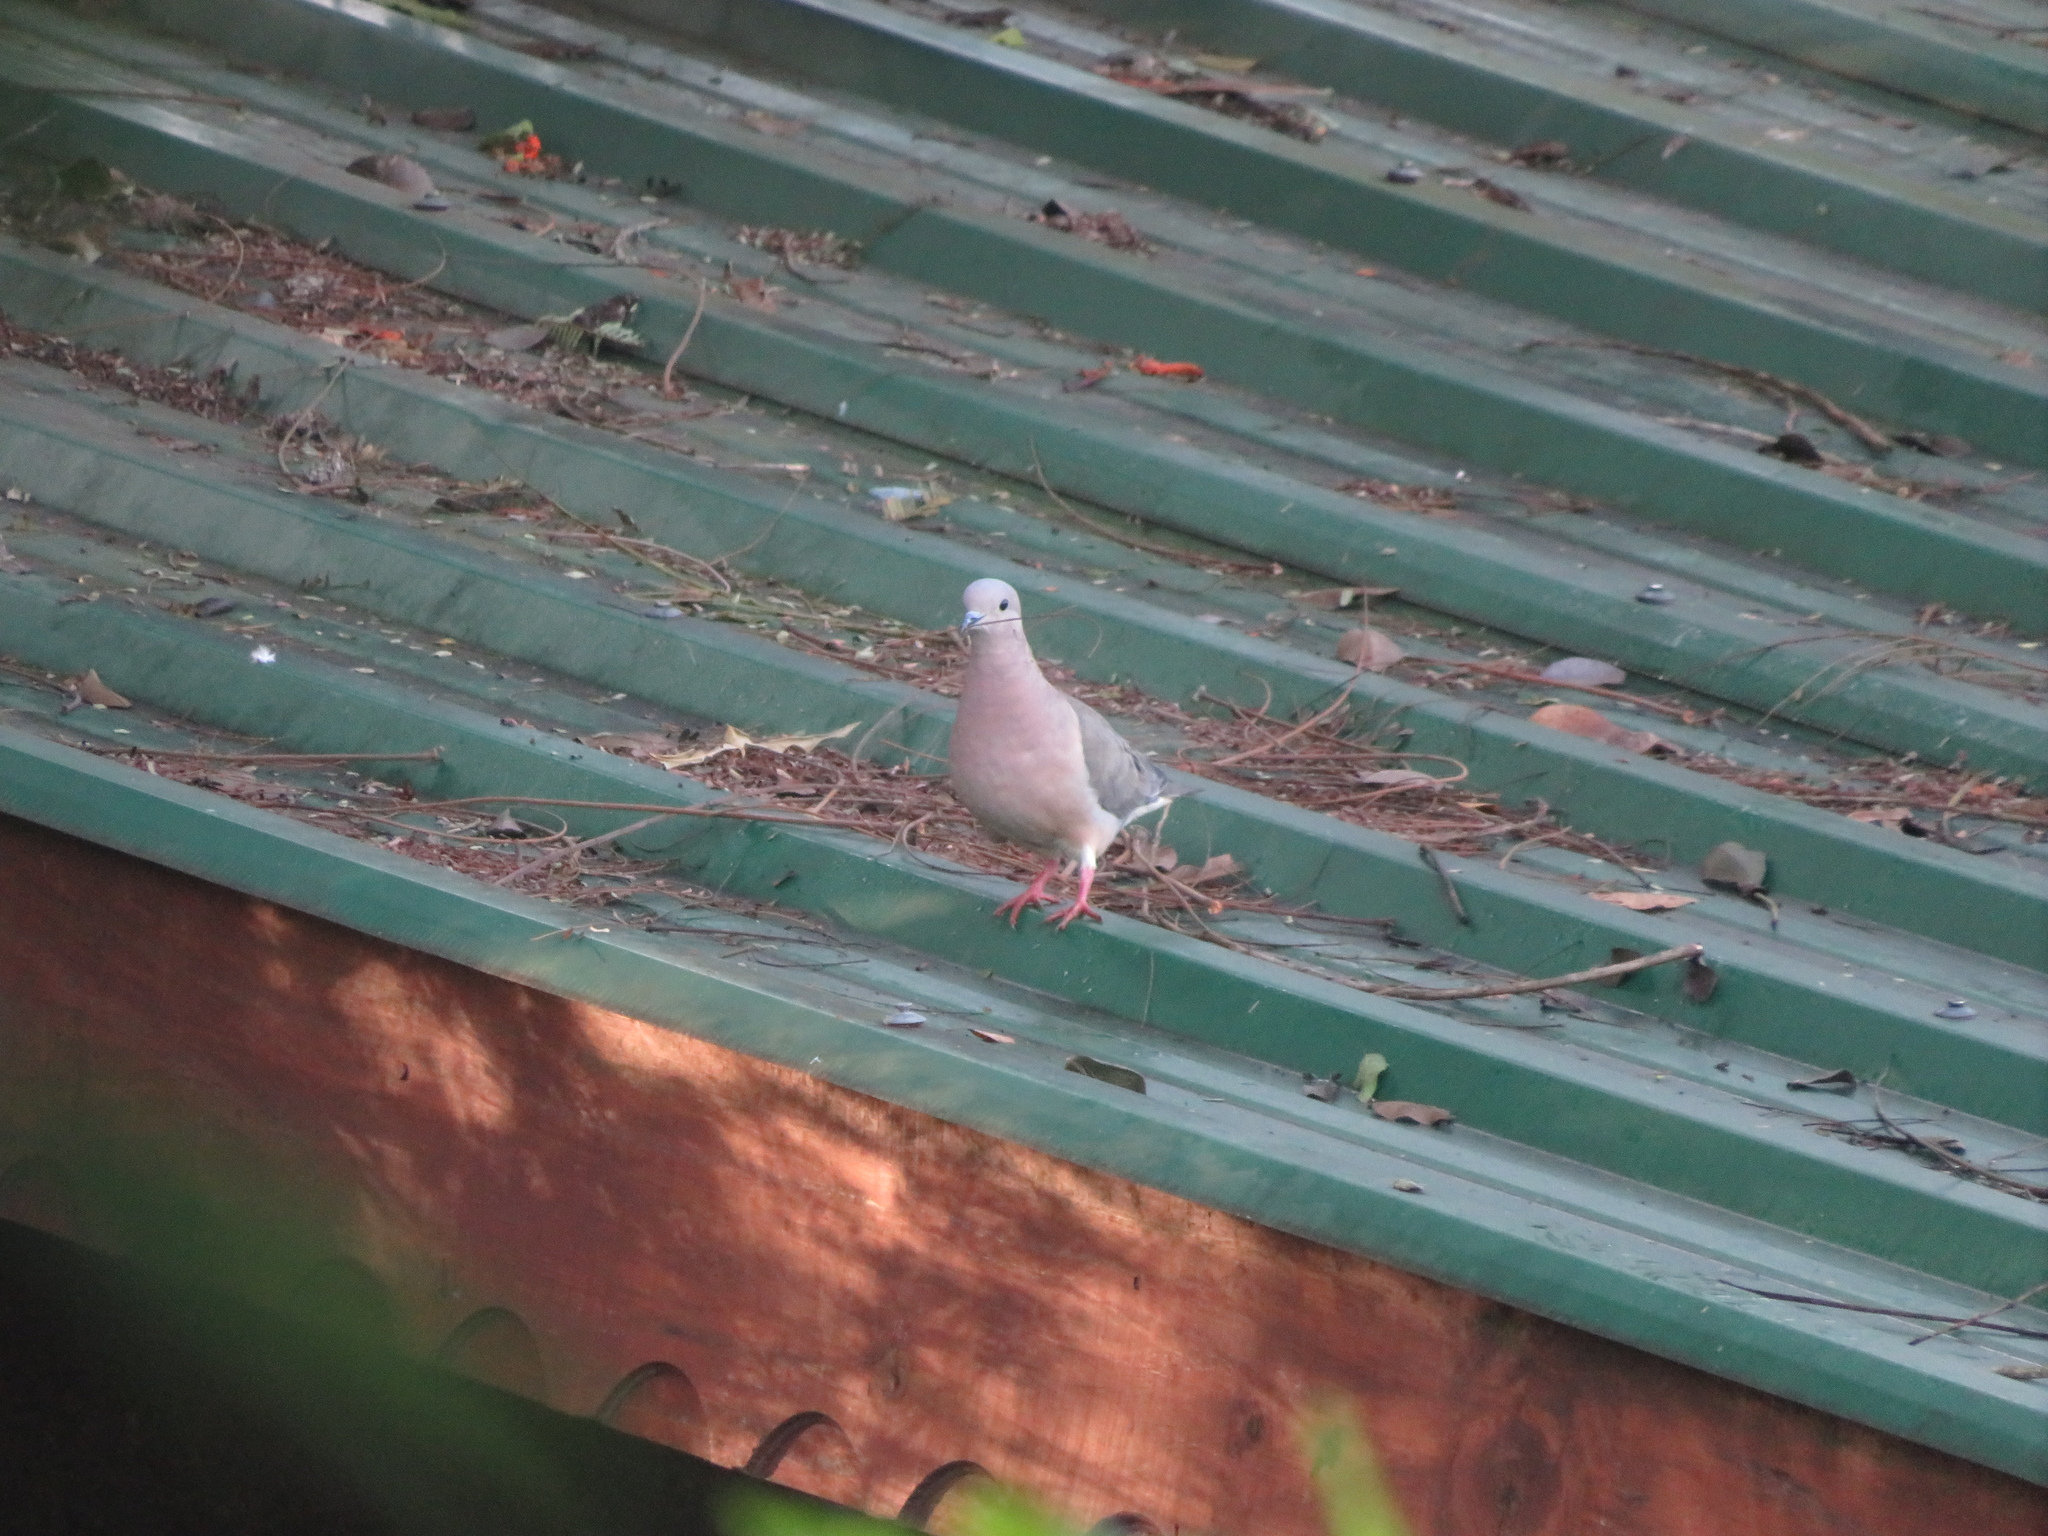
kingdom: Animalia
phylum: Chordata
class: Aves
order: Columbiformes
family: Columbidae
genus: Zenaida
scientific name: Zenaida auriculata
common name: Eared dove
